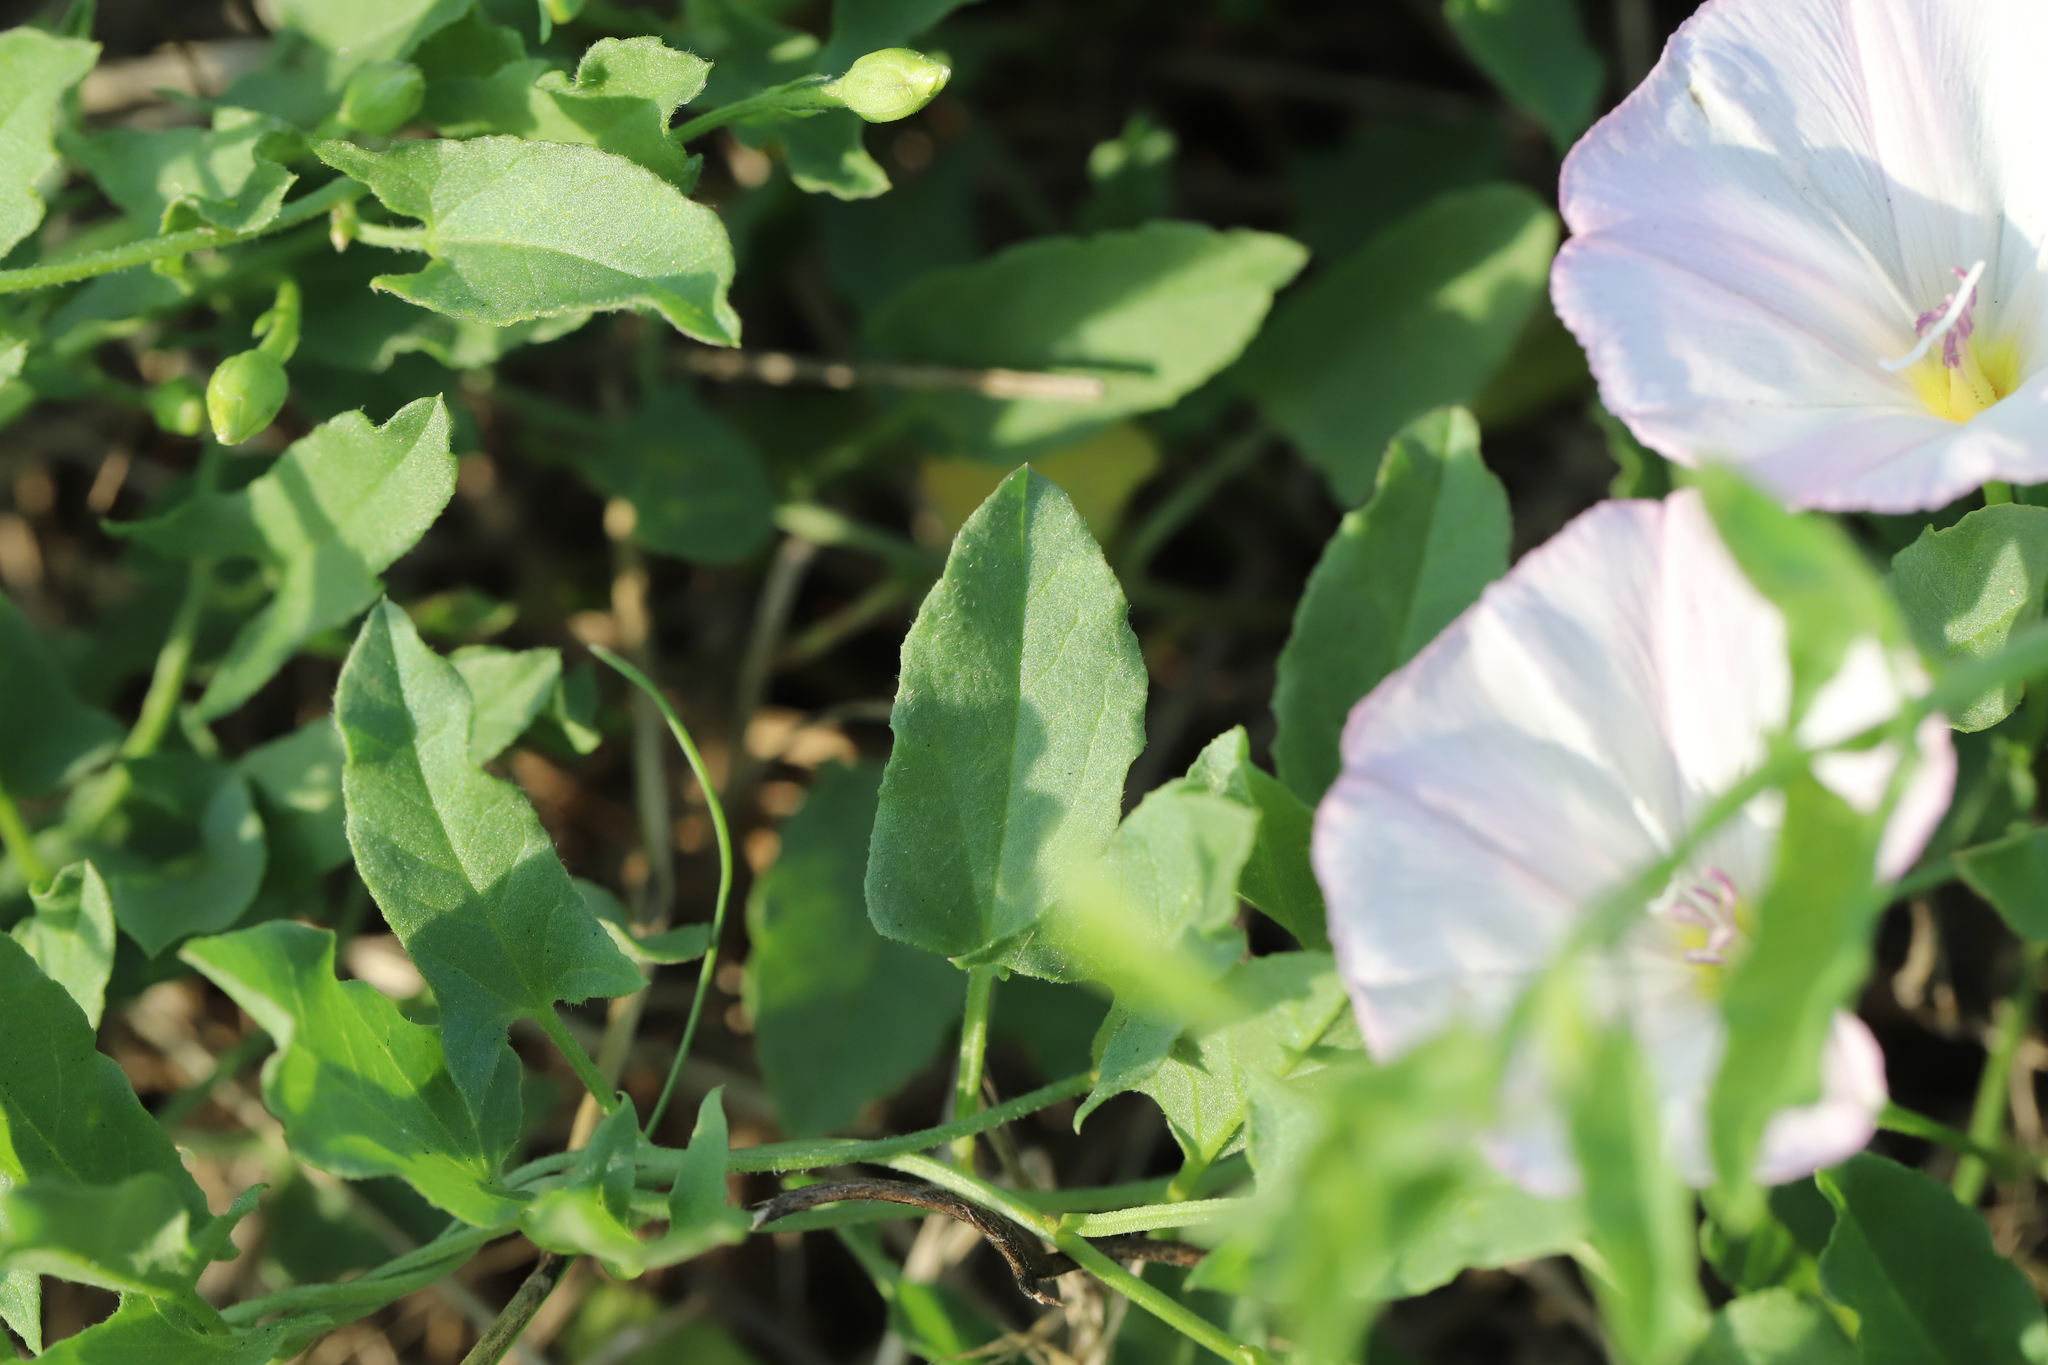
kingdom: Plantae
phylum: Tracheophyta
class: Magnoliopsida
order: Solanales
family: Convolvulaceae
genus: Convolvulus
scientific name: Convolvulus arvensis
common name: Field bindweed
